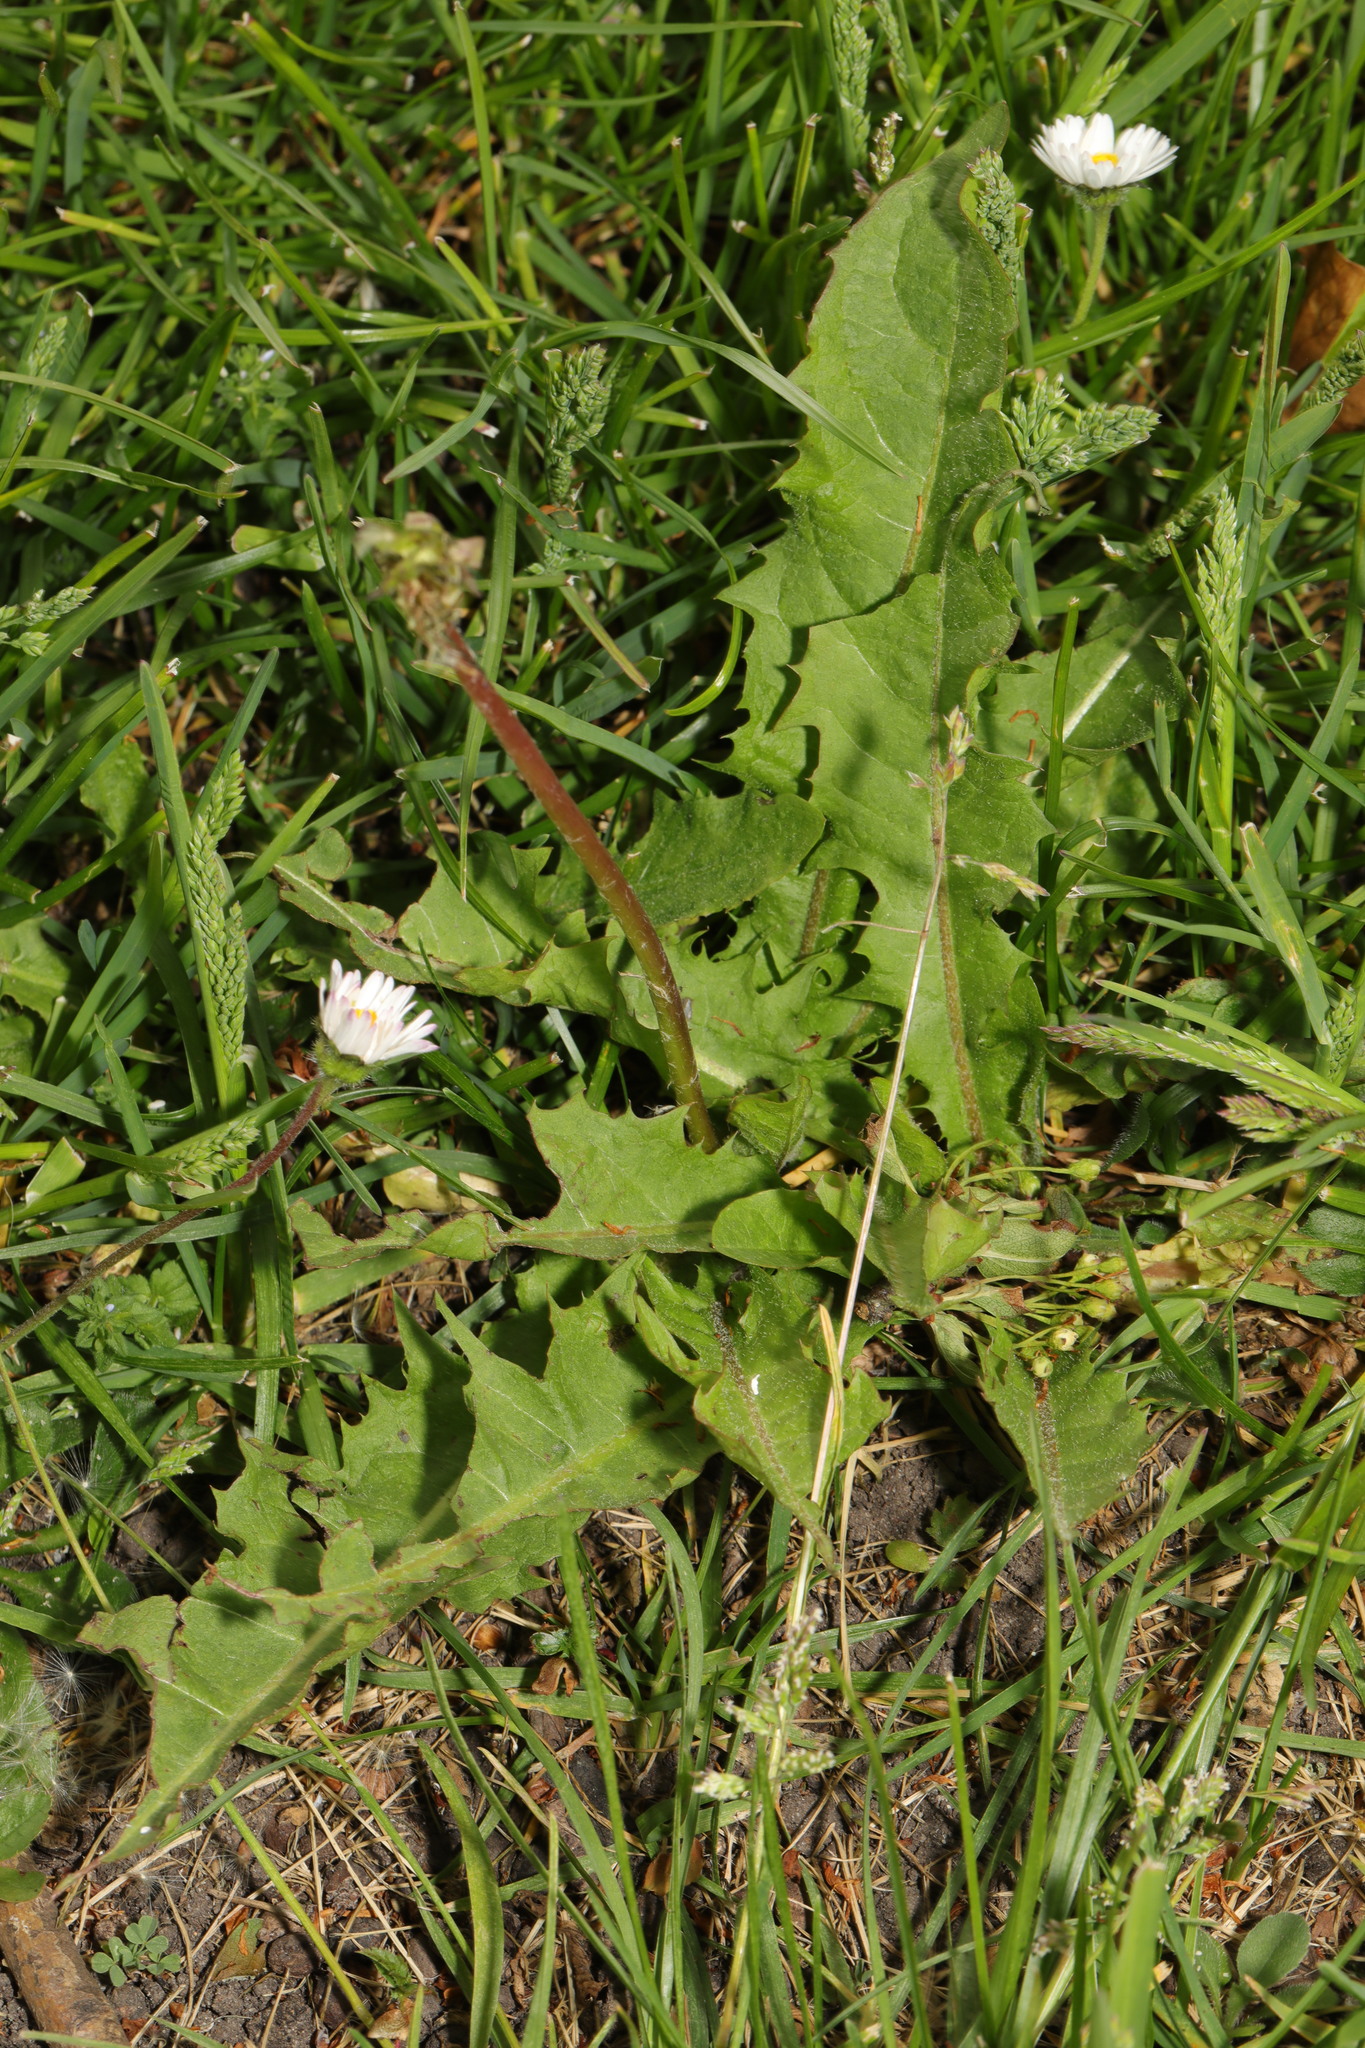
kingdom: Plantae
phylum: Tracheophyta
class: Magnoliopsida
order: Asterales
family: Asteraceae
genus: Taraxacum
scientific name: Taraxacum officinale
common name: Common dandelion
